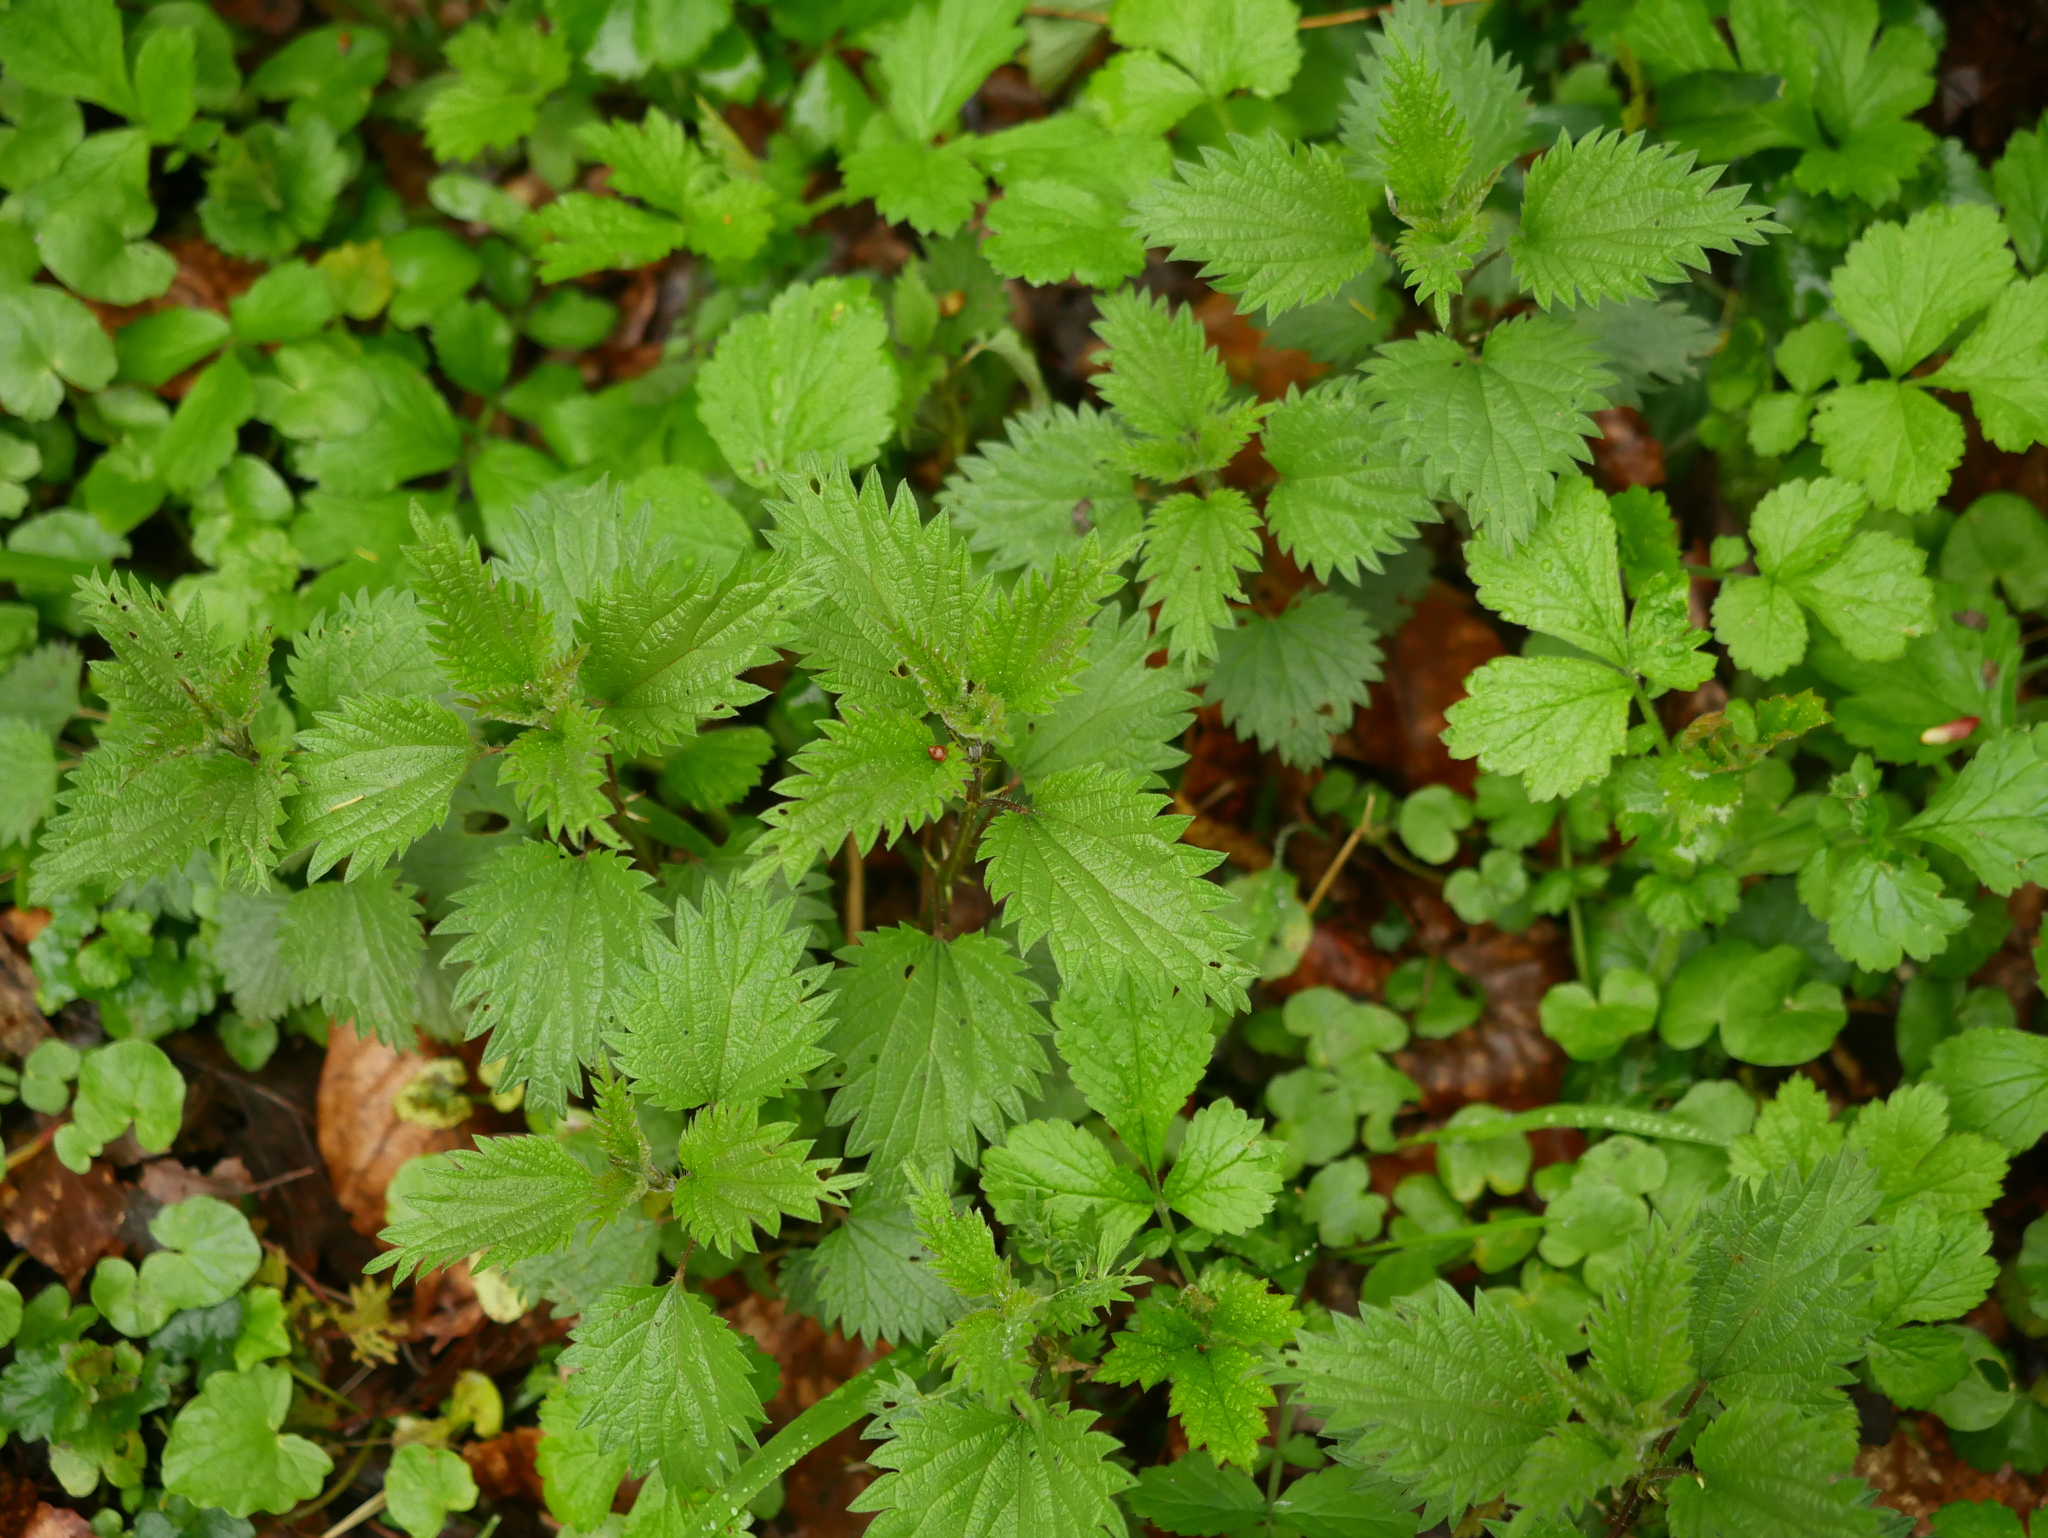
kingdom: Plantae
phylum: Tracheophyta
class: Magnoliopsida
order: Rosales
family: Urticaceae
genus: Urtica
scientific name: Urtica dioica
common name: Common nettle
